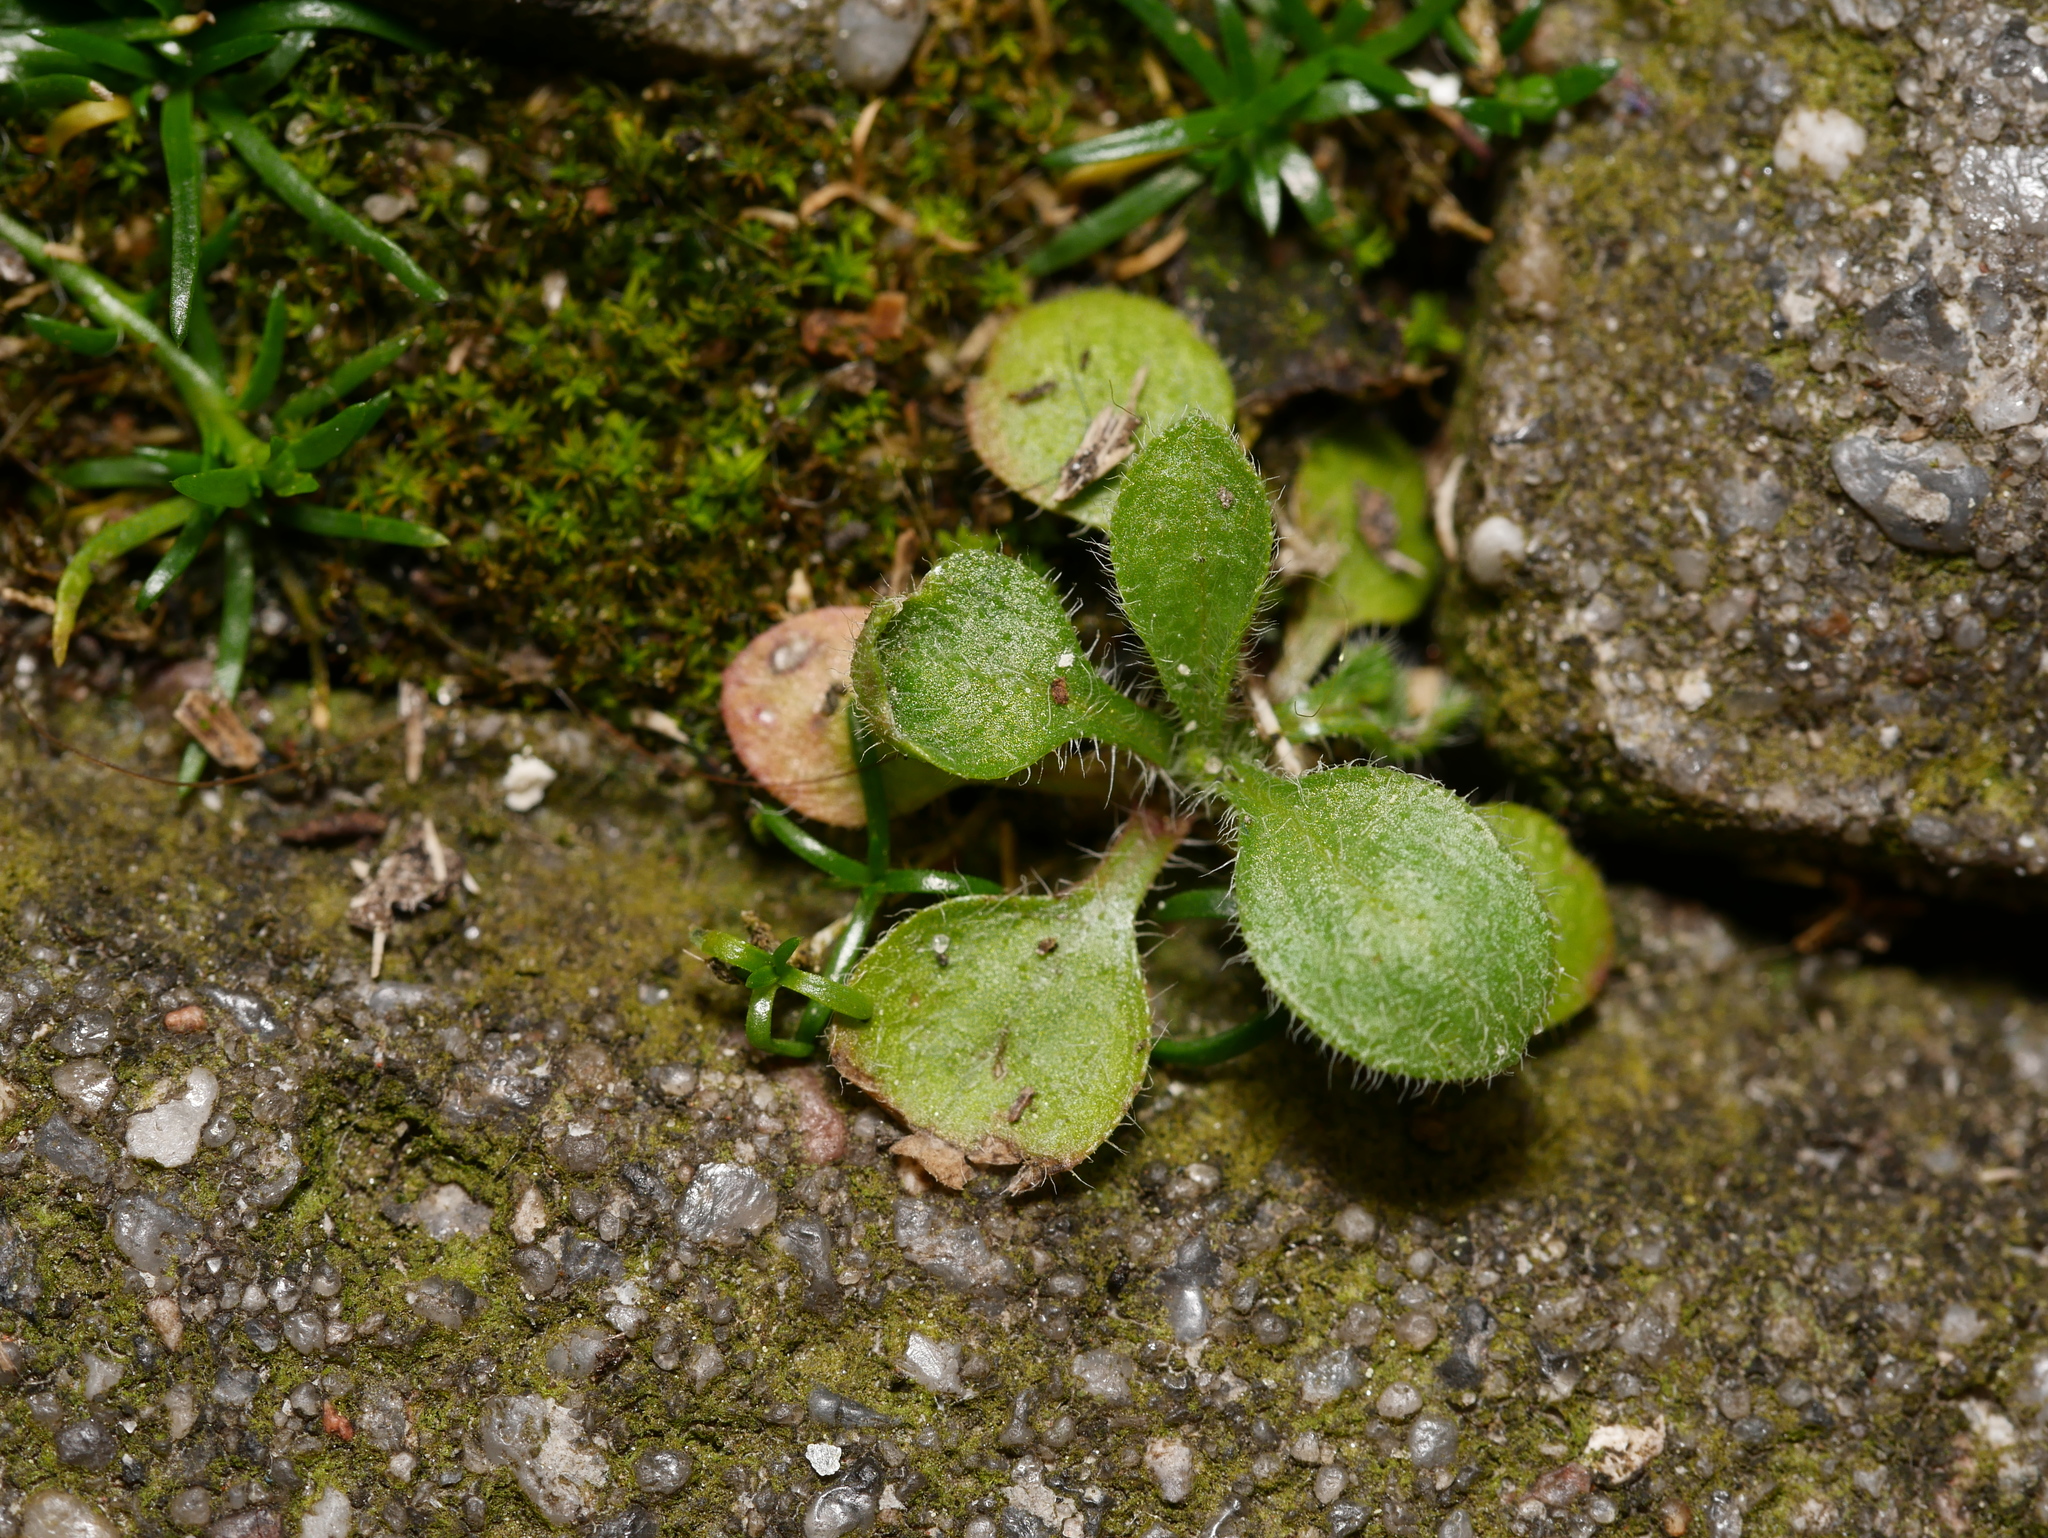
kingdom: Plantae
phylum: Tracheophyta
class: Magnoliopsida
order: Brassicales
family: Brassicaceae
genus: Arabidopsis
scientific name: Arabidopsis thaliana
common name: Thale cress
